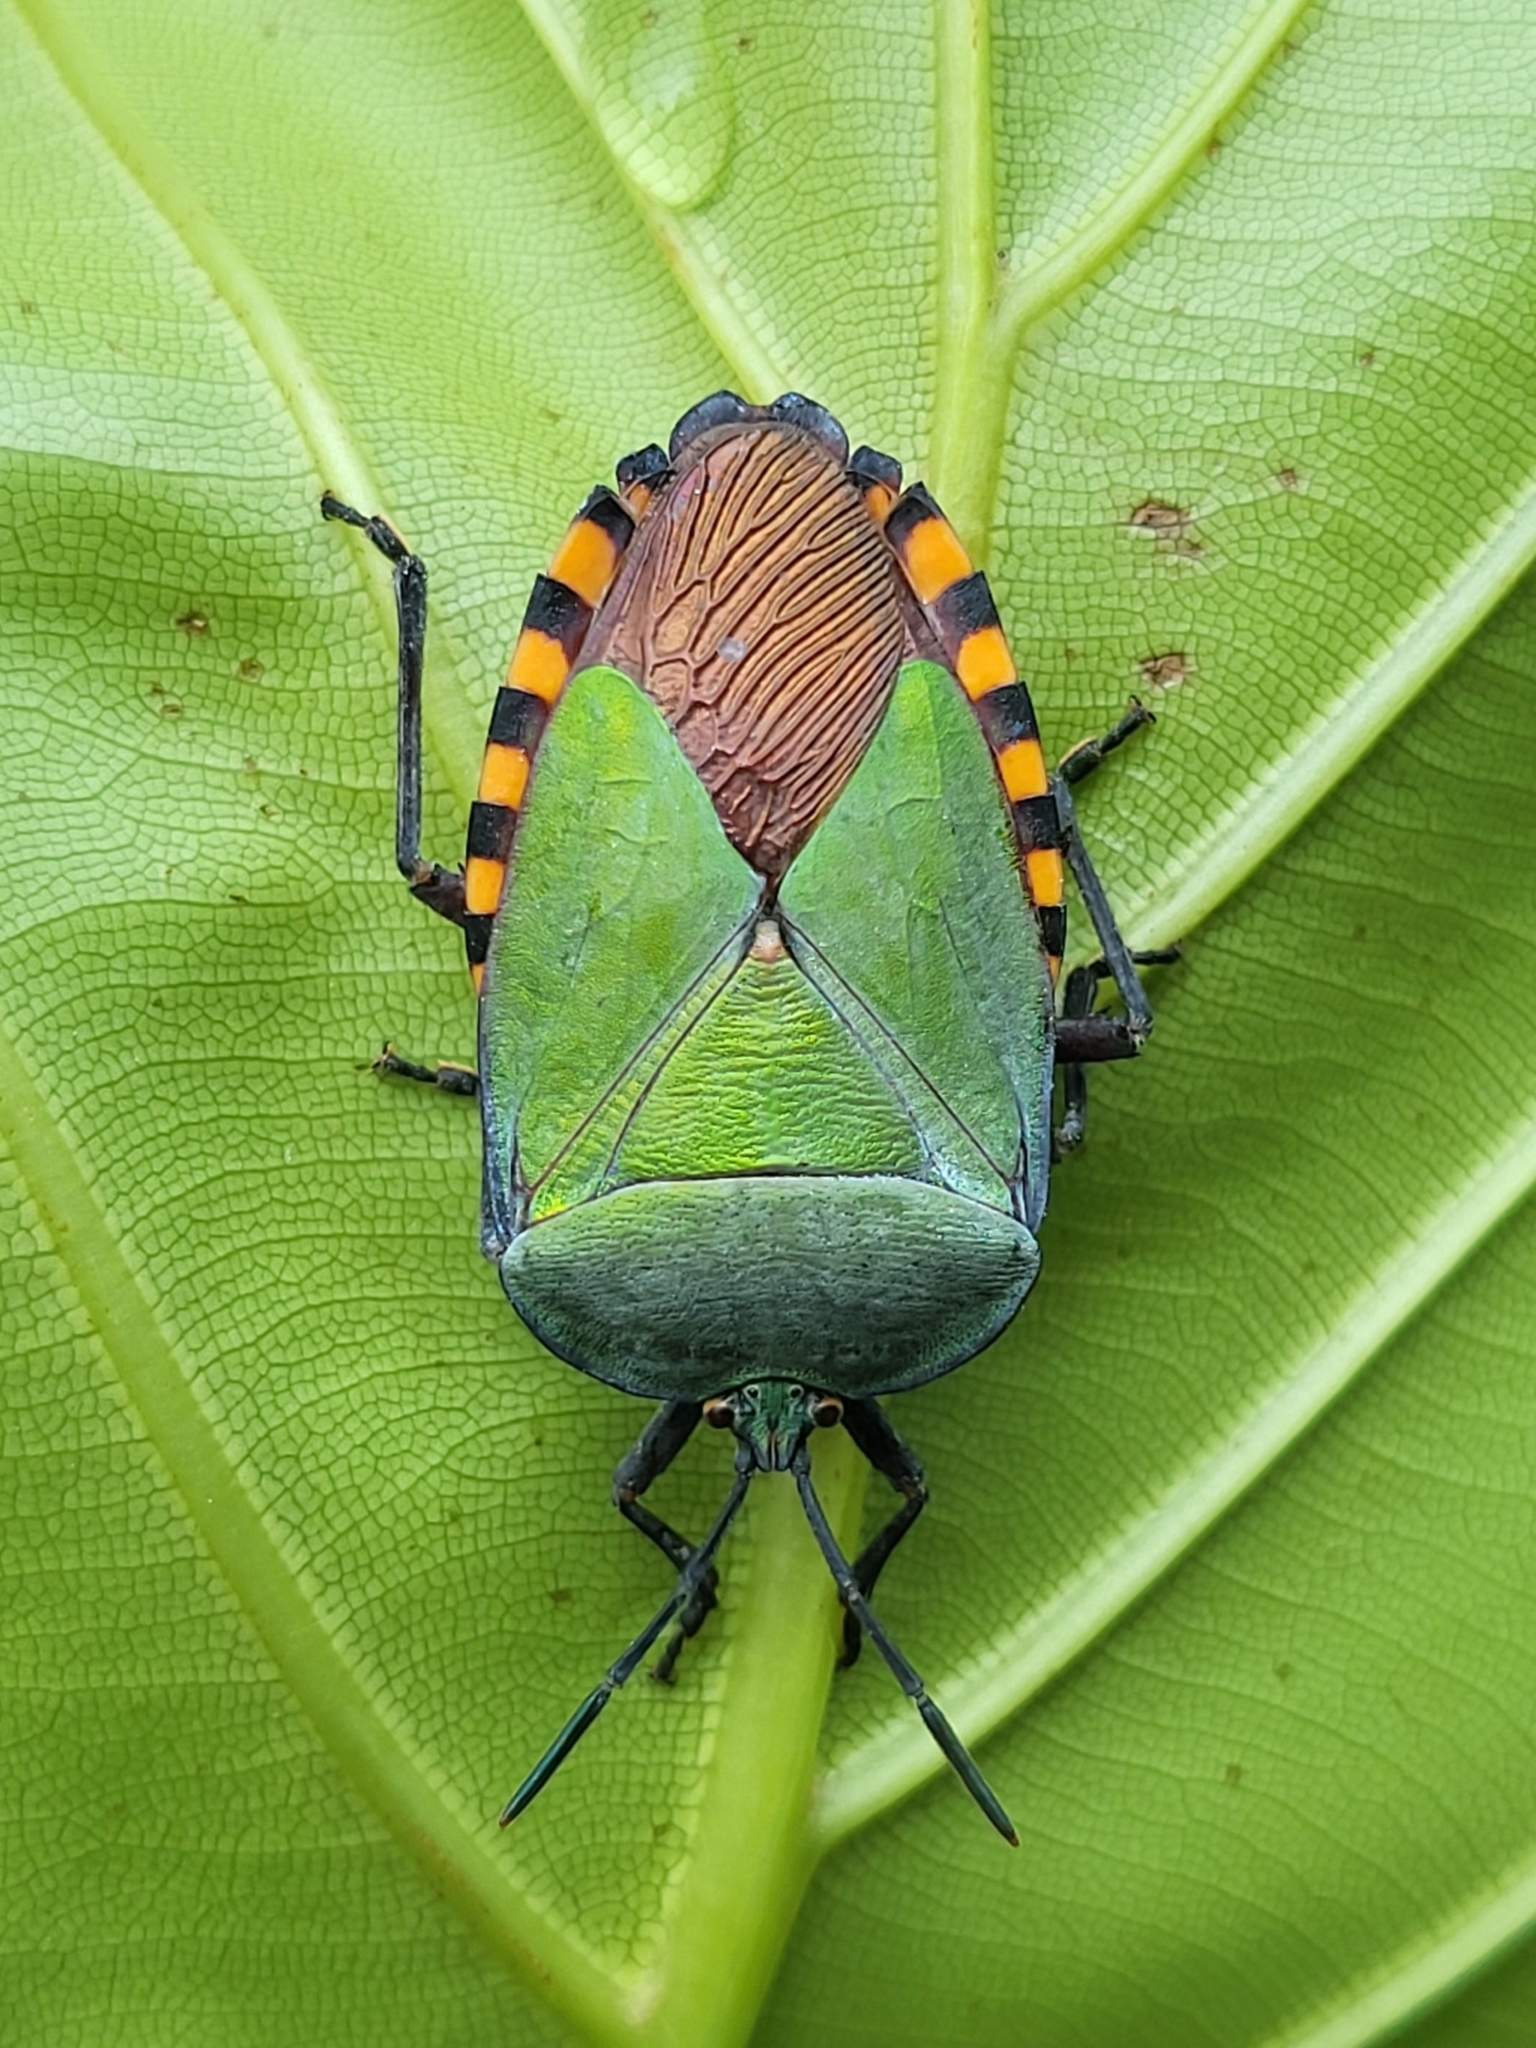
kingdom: Animalia
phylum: Arthropoda
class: Insecta
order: Hemiptera
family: Tessaratomidae
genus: Pycanum
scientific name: Pycanum alternatum
